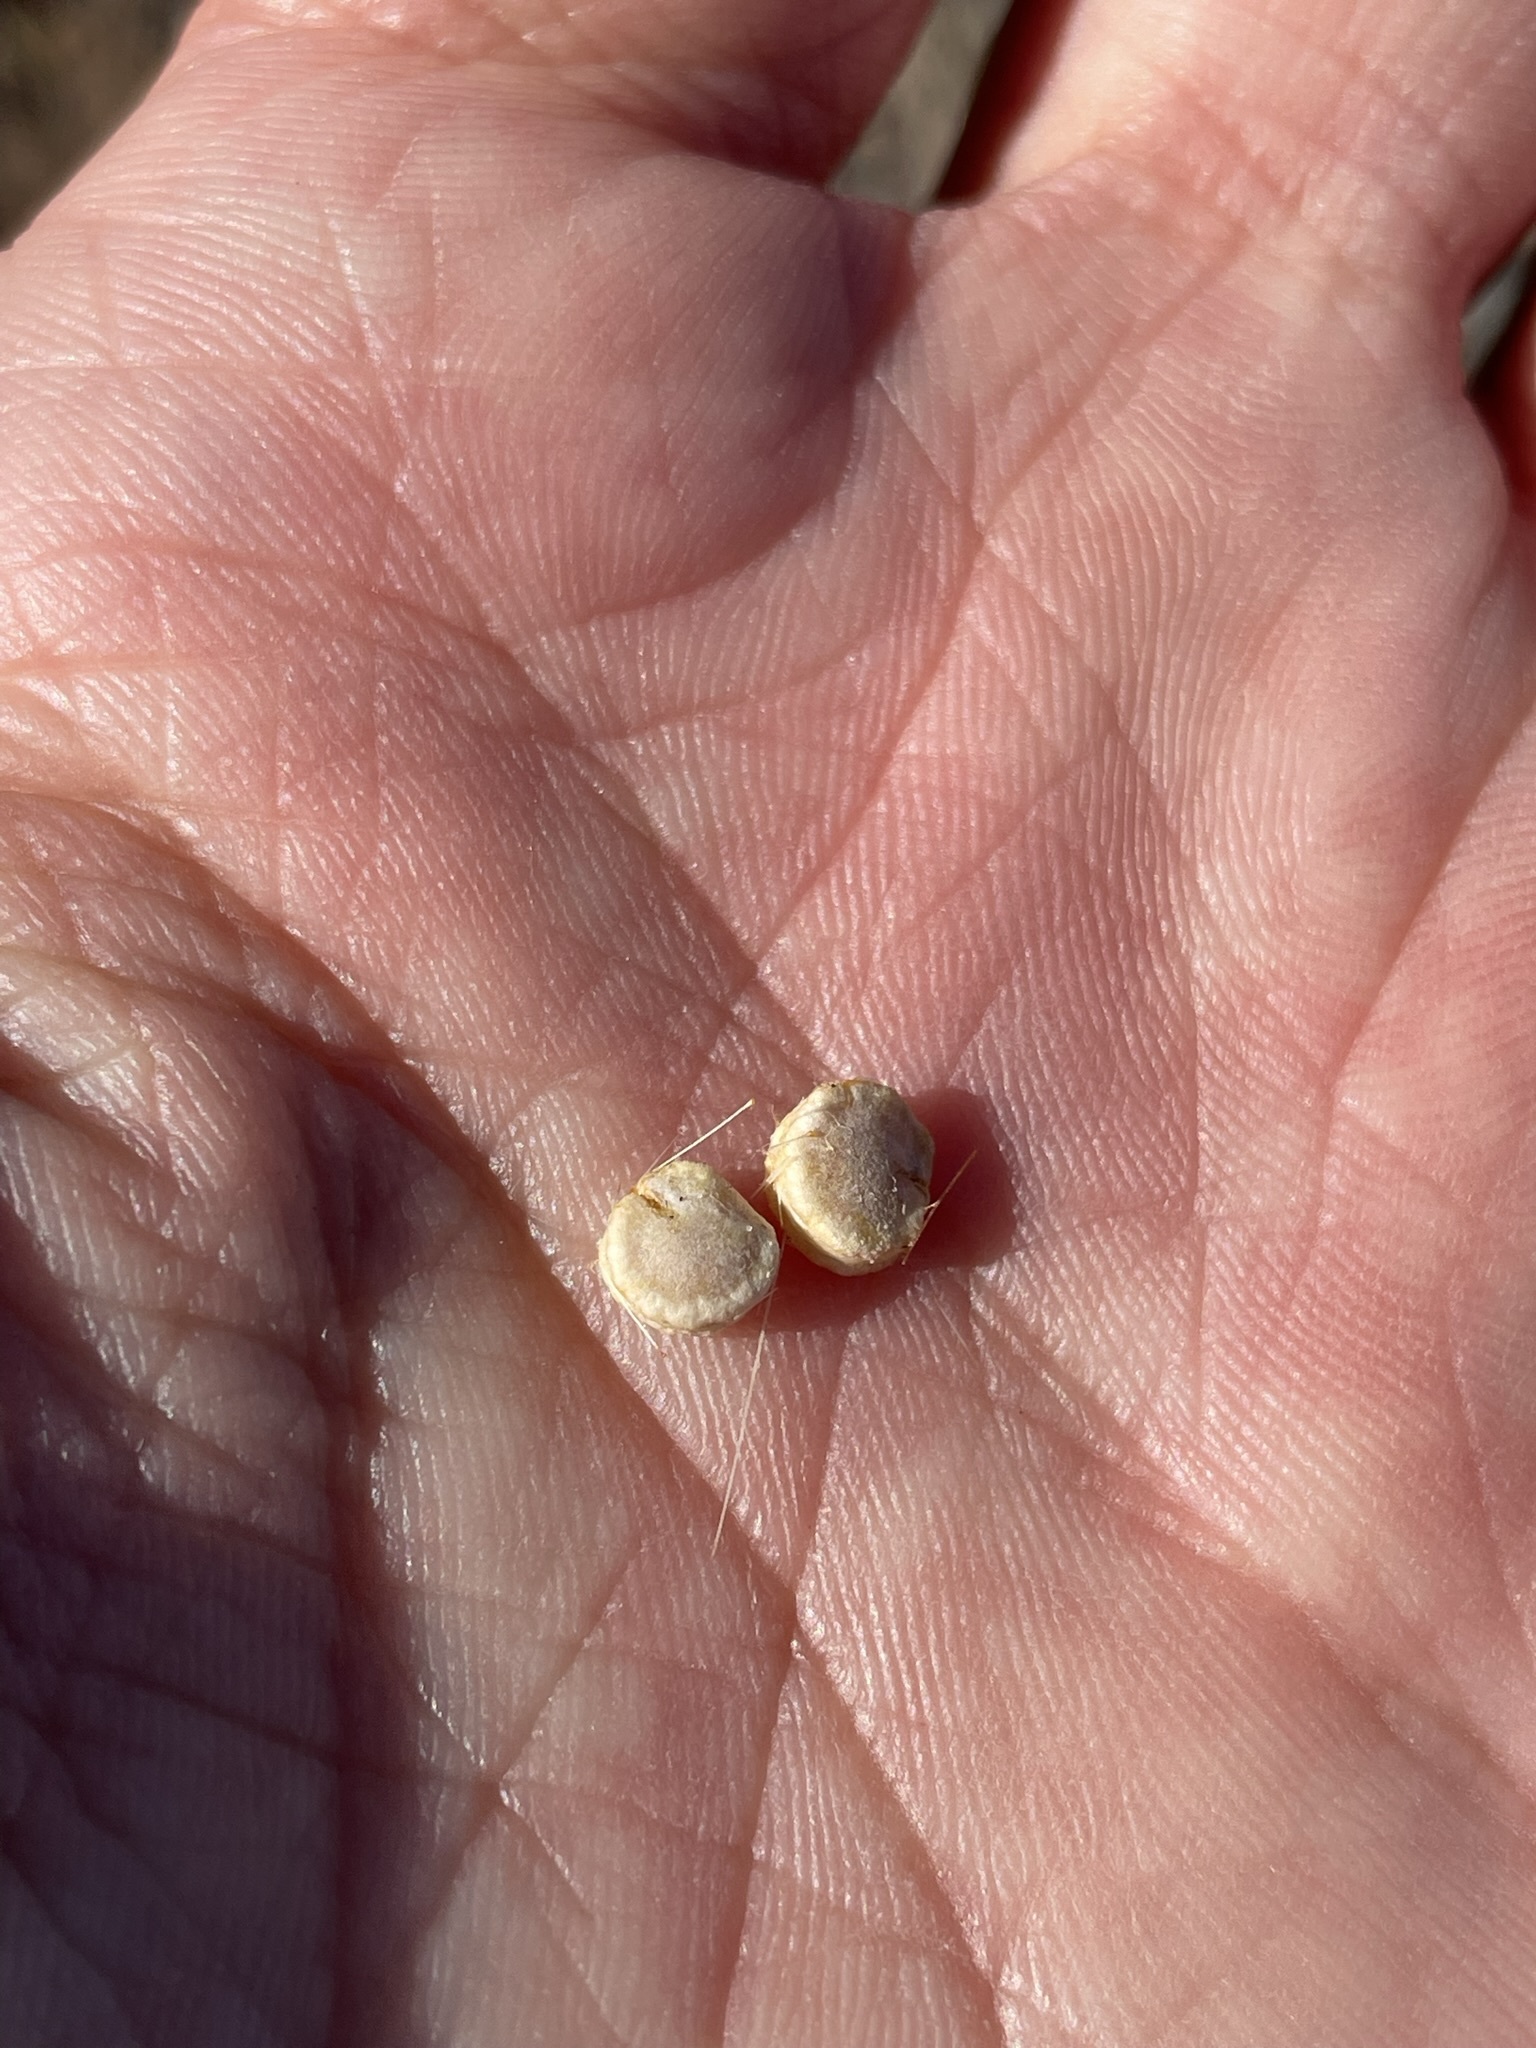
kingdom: Plantae
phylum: Tracheophyta
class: Magnoliopsida
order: Caryophyllales
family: Cactaceae
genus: Micropuntia
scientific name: Micropuntia pulchella
